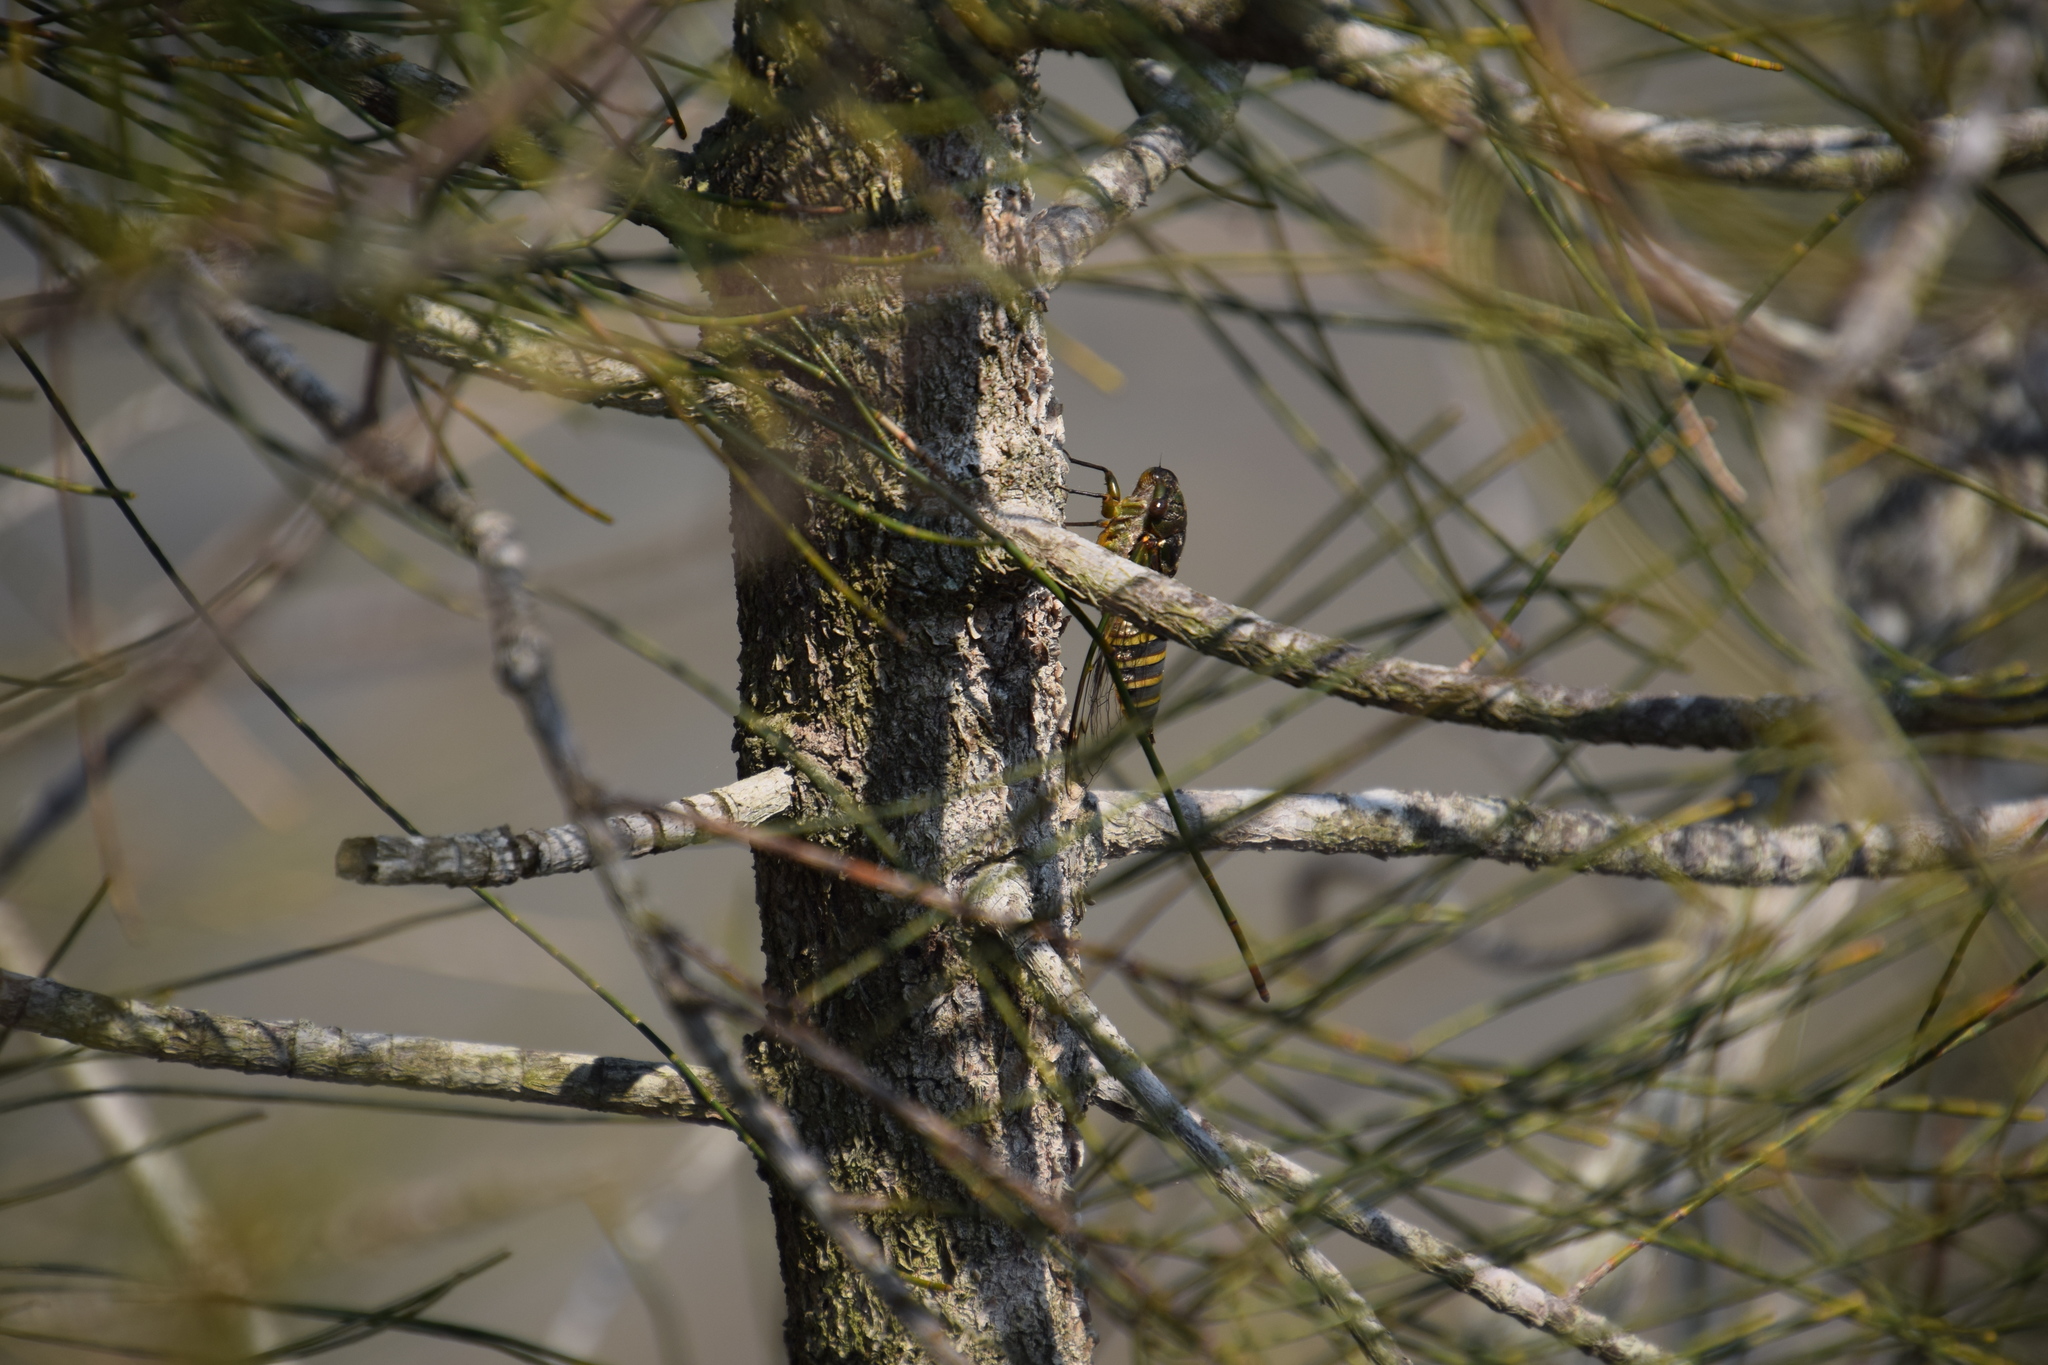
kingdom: Animalia
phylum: Arthropoda
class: Insecta
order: Hemiptera
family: Cicadidae
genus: Psaltoda
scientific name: Psaltoda plaga
